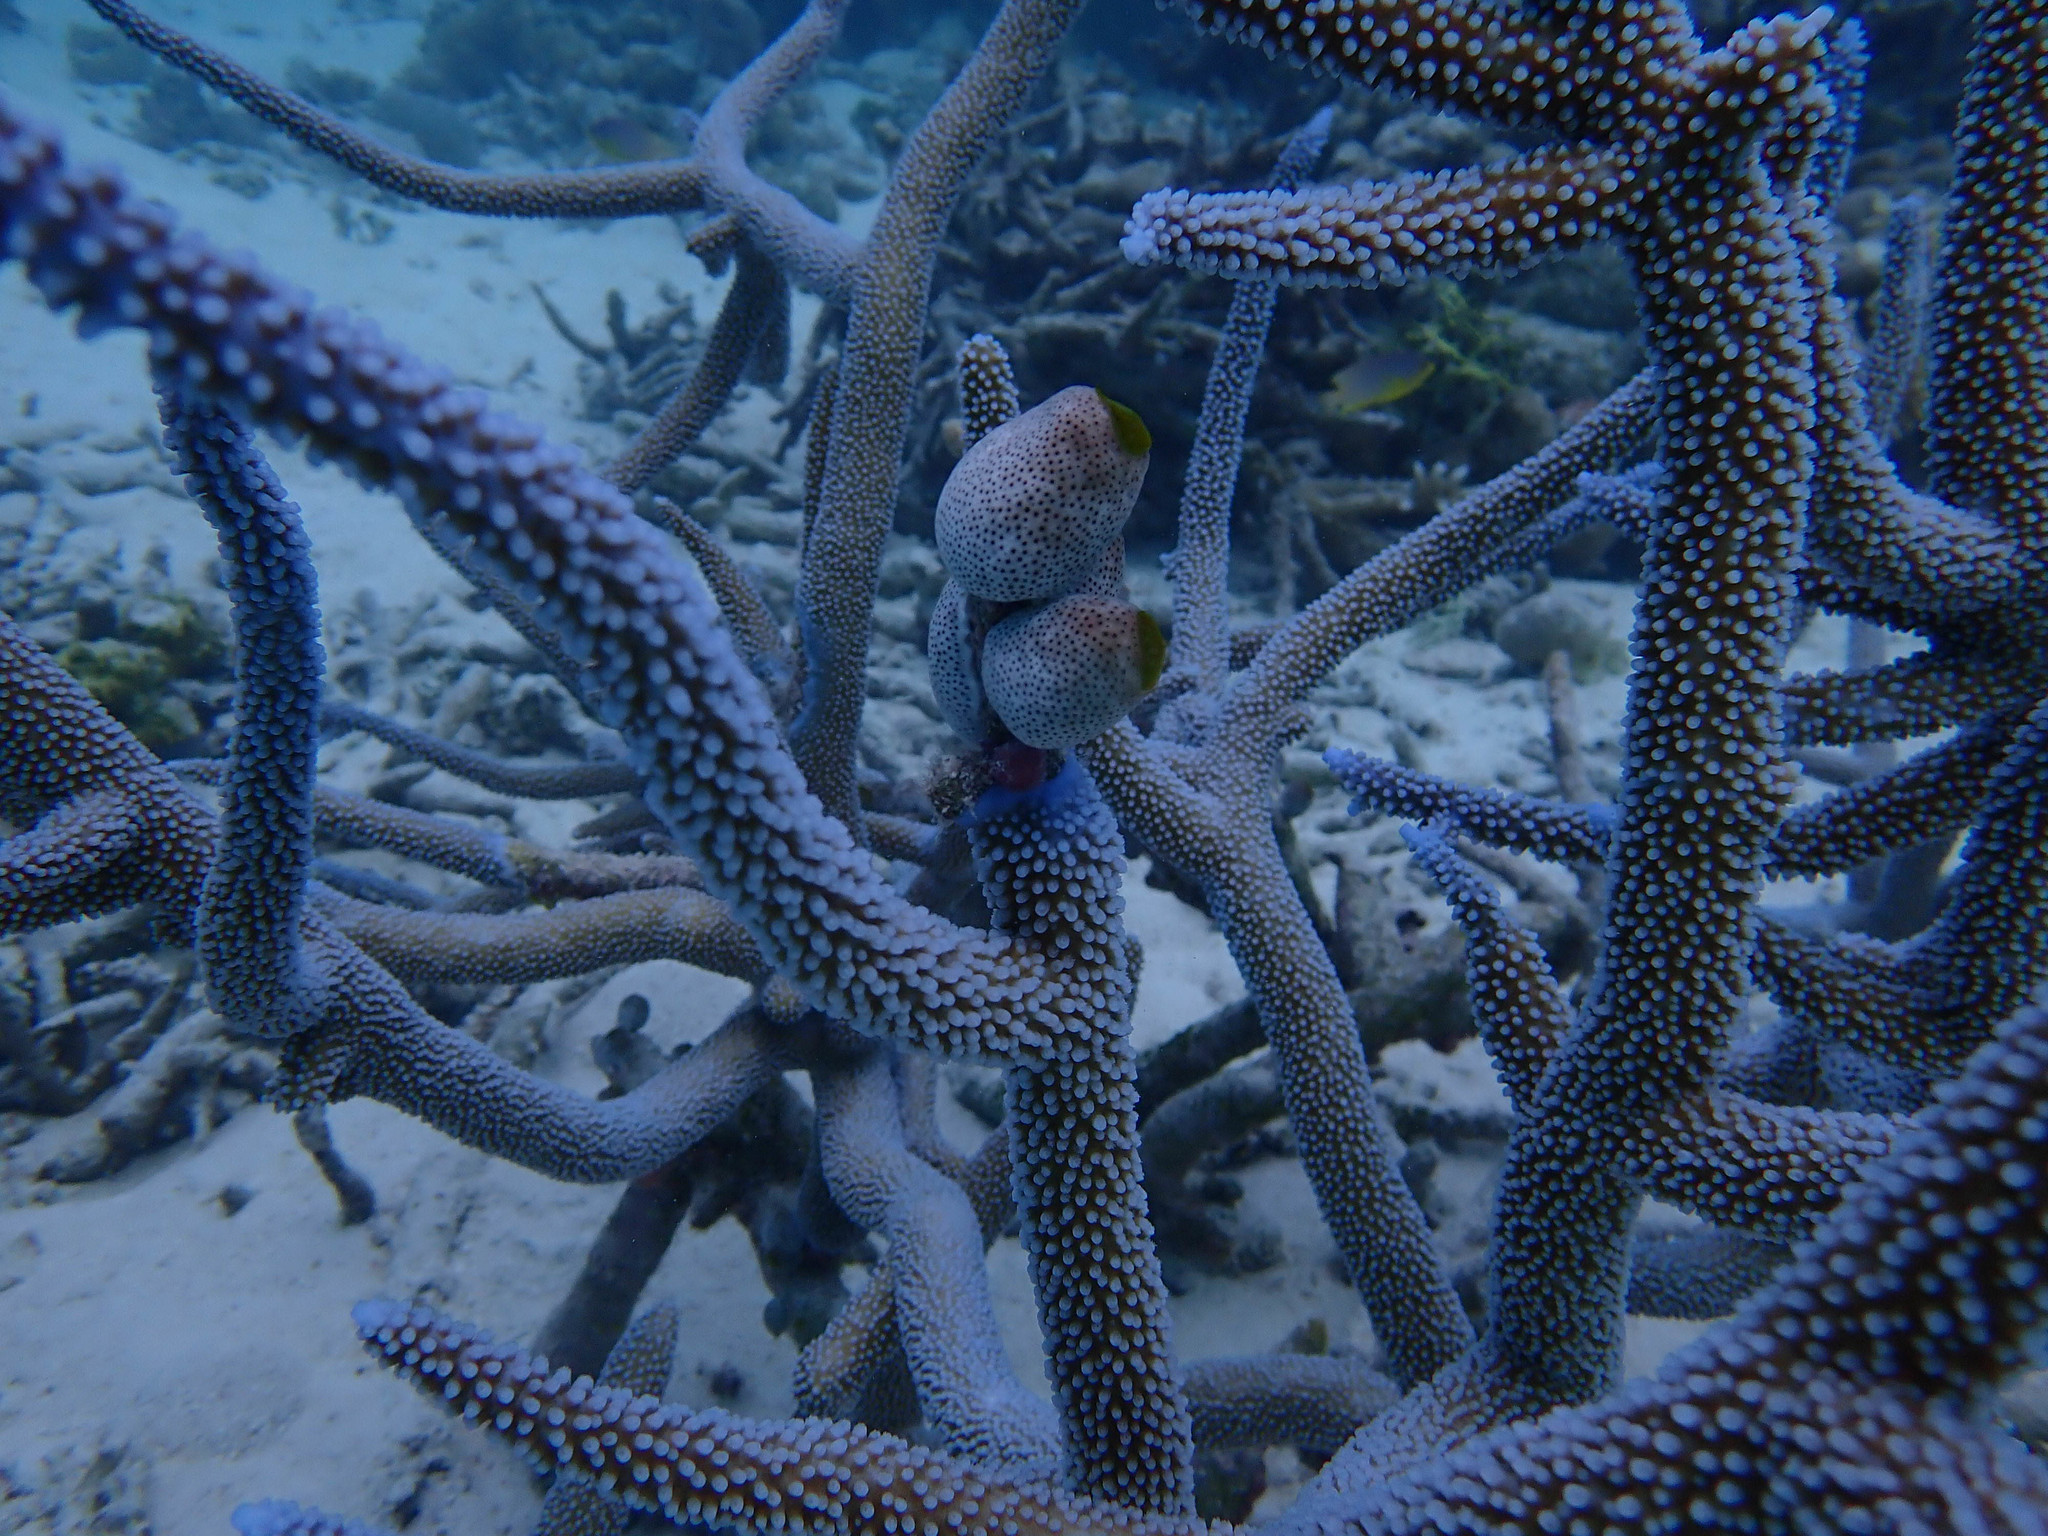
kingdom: Animalia
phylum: Cnidaria
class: Anthozoa
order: Scleractinia
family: Acroporidae
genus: Acropora
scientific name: Acropora muricata
